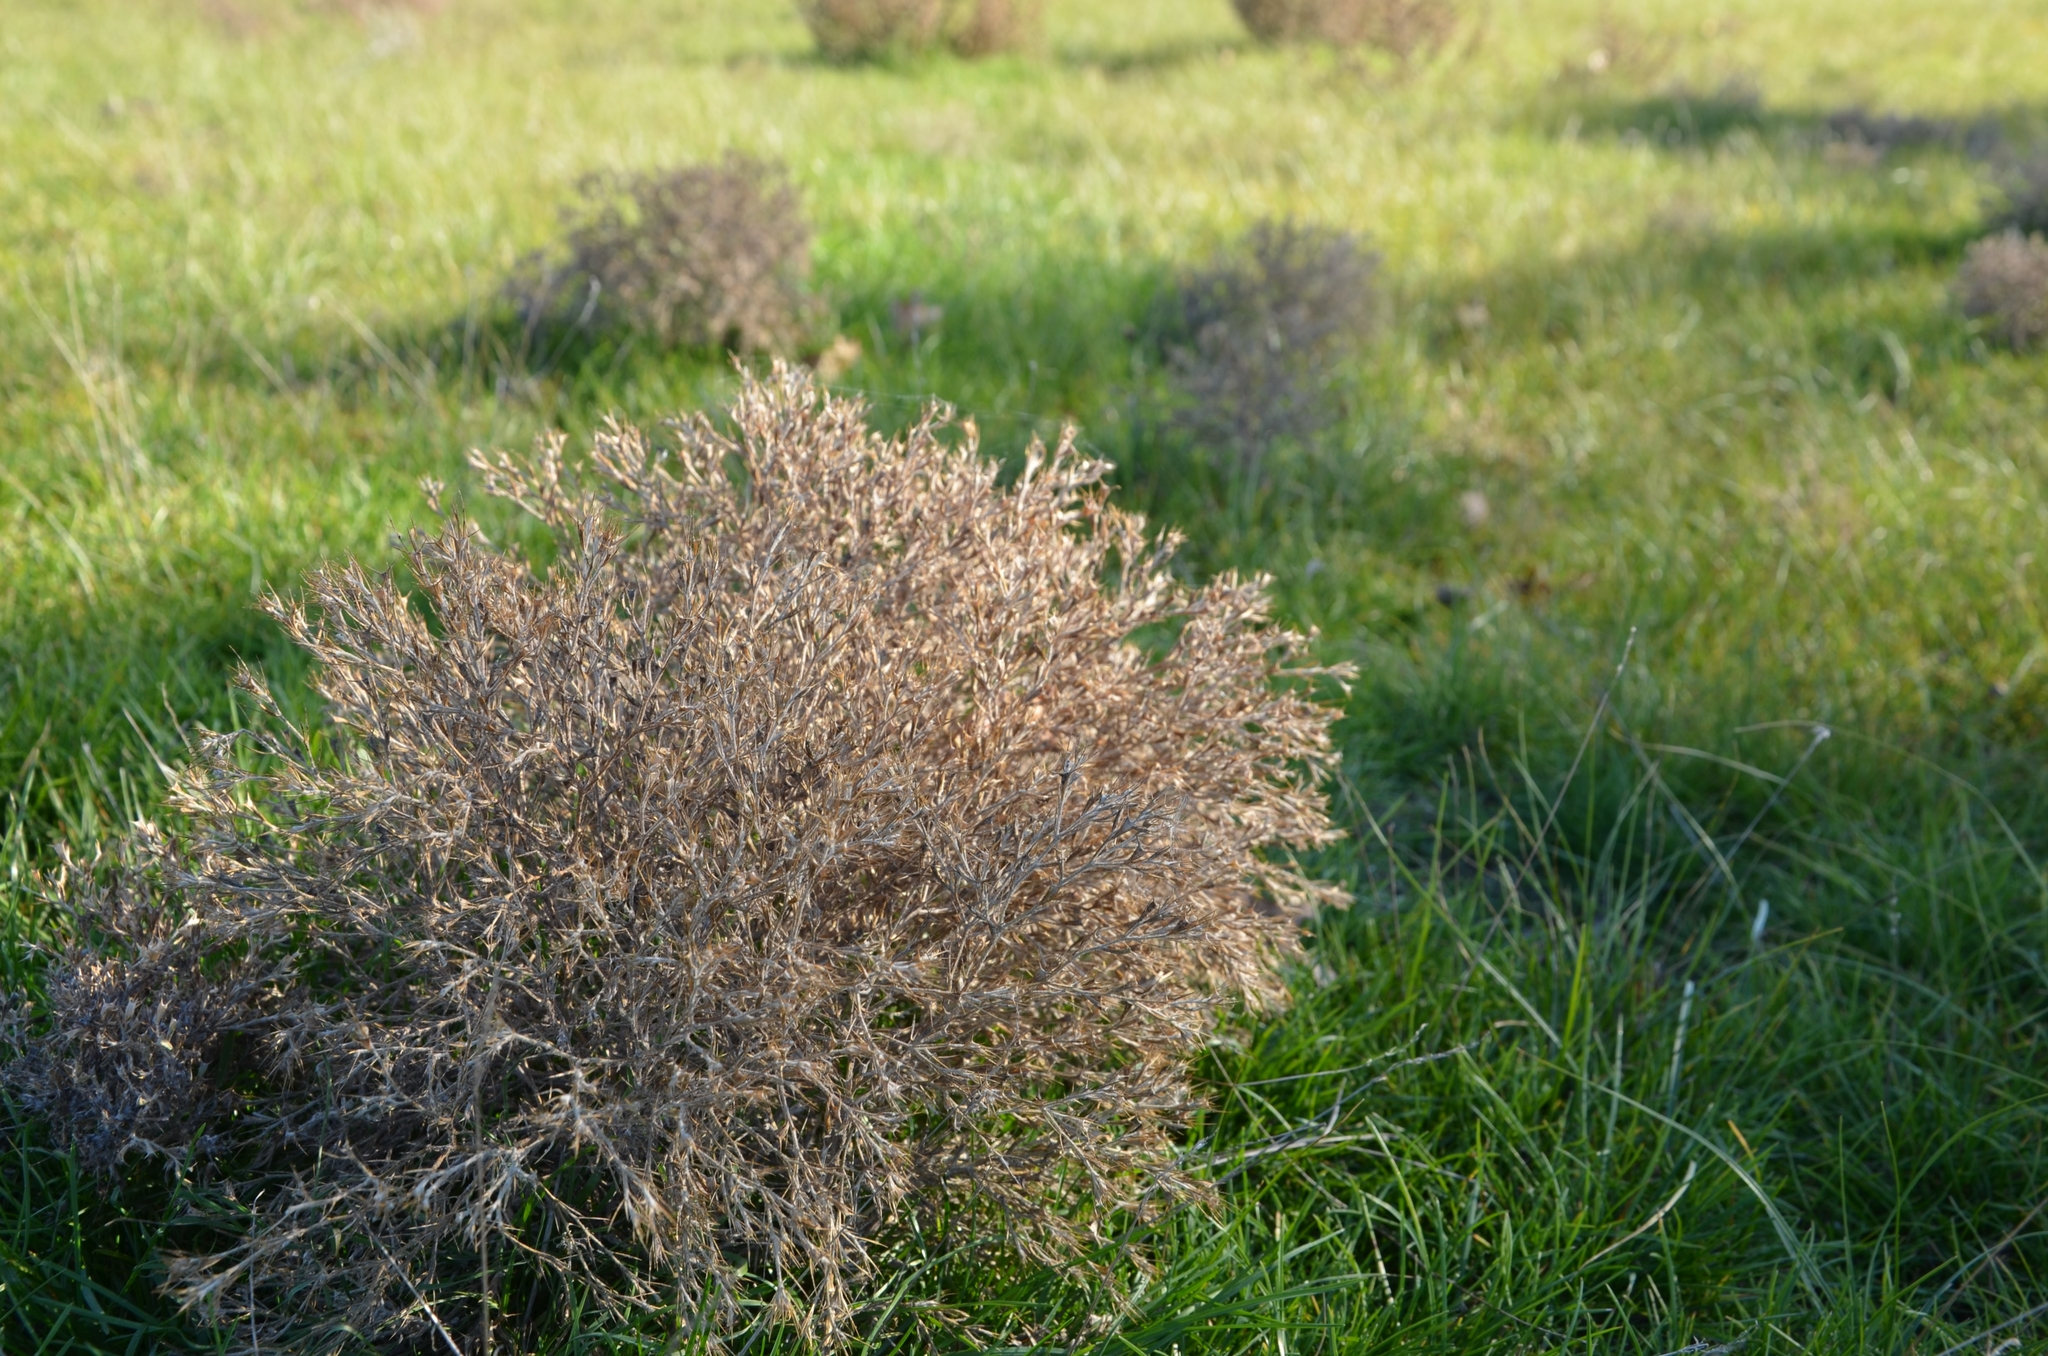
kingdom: Plantae
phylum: Tracheophyta
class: Magnoliopsida
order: Caryophyllales
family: Amaranthaceae
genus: Ceratocarpus
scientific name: Ceratocarpus arenarius
